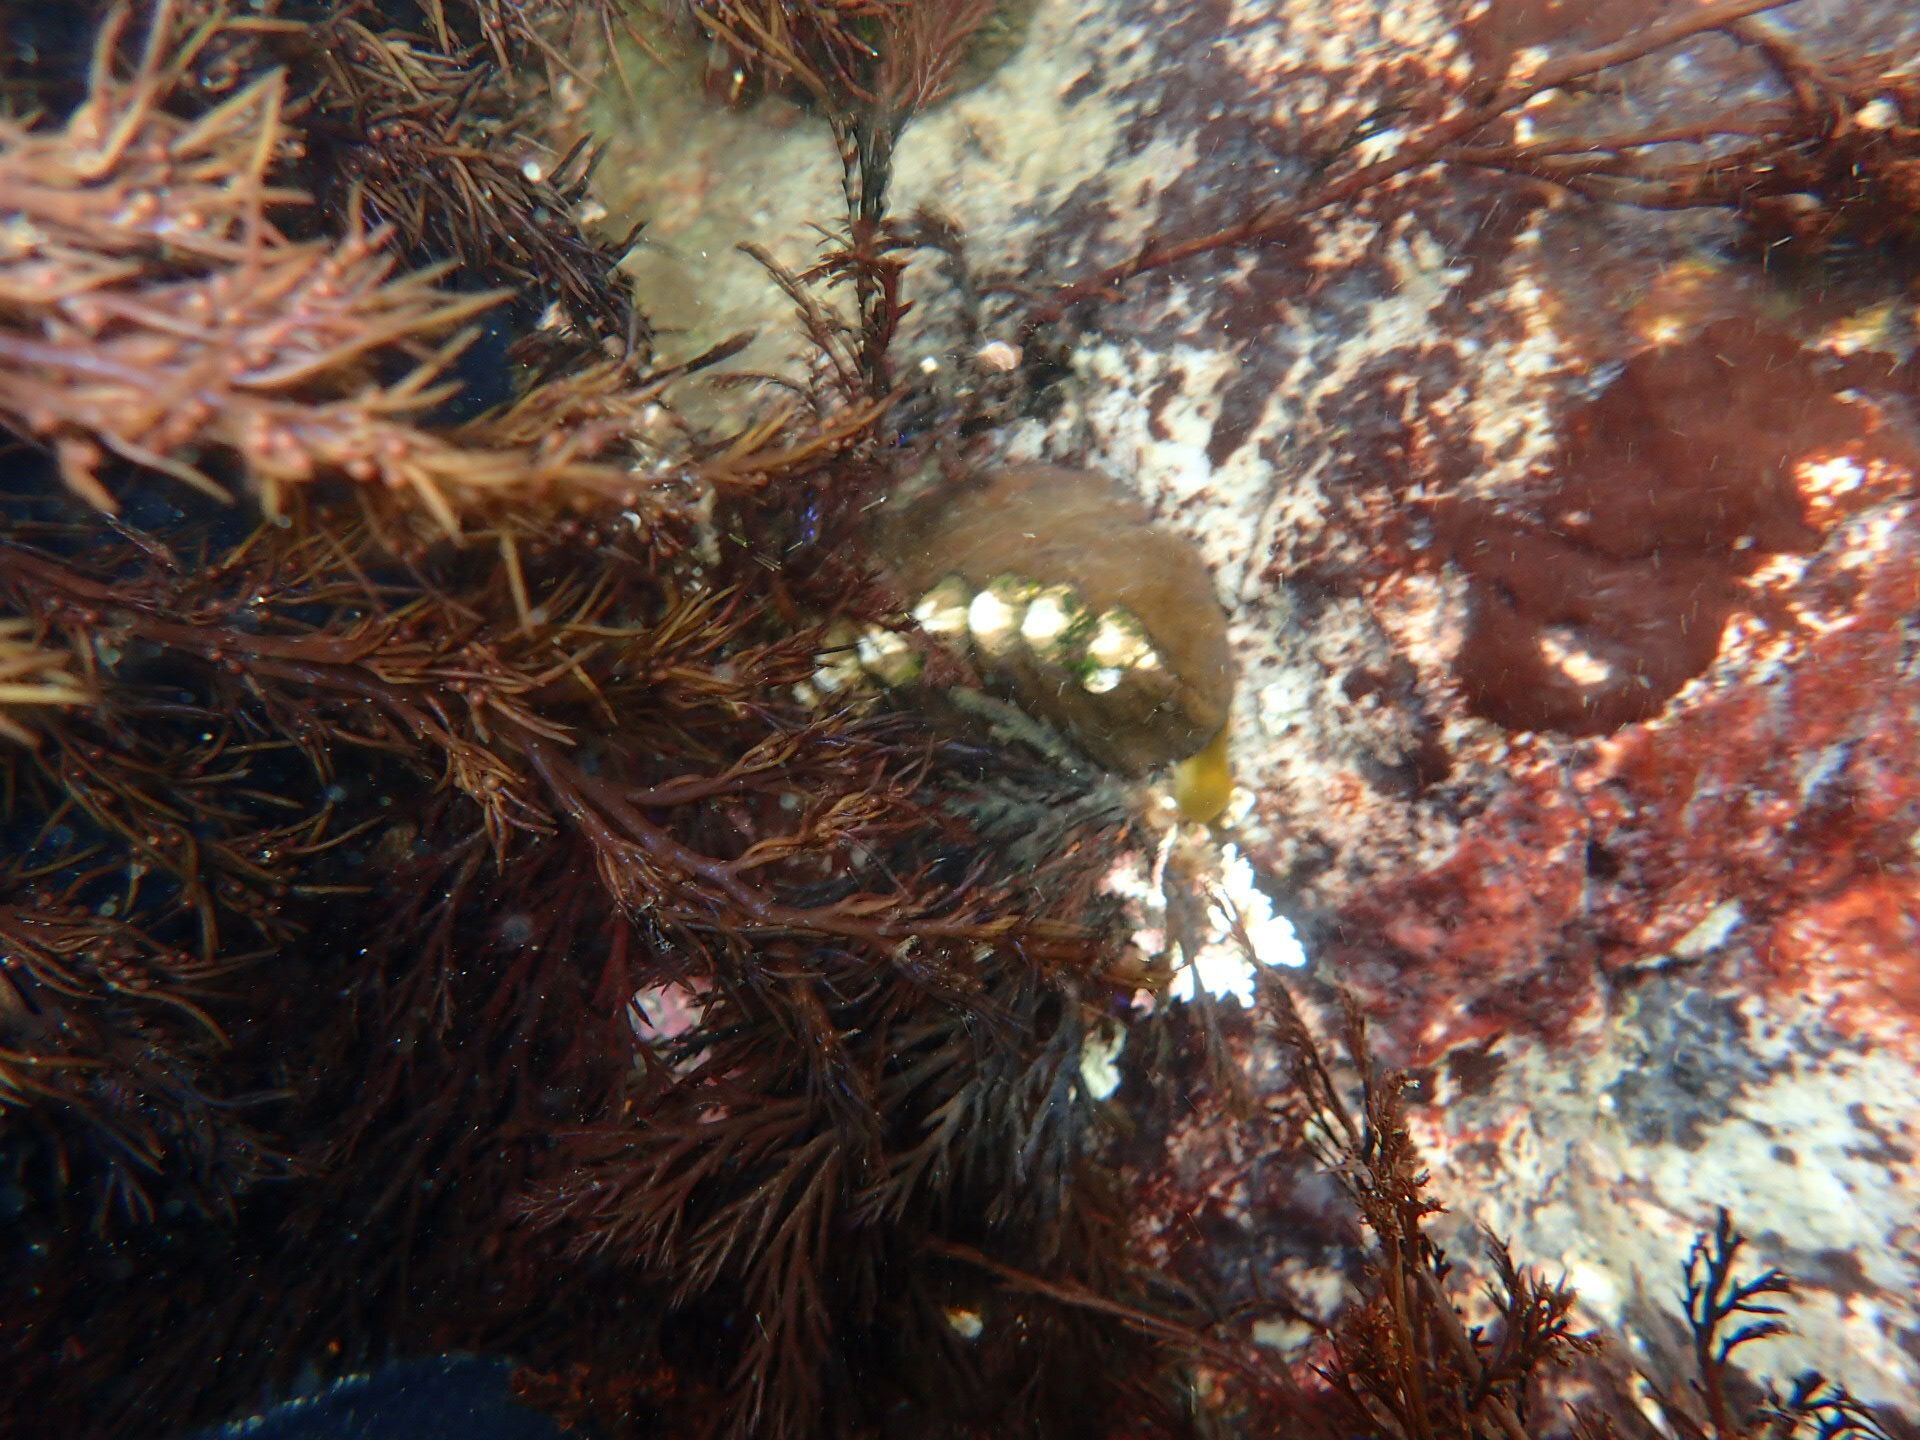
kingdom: Animalia
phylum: Mollusca
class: Polyplacophora
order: Chitonida
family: Mopaliidae
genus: Katharina
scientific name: Katharina tunicata
